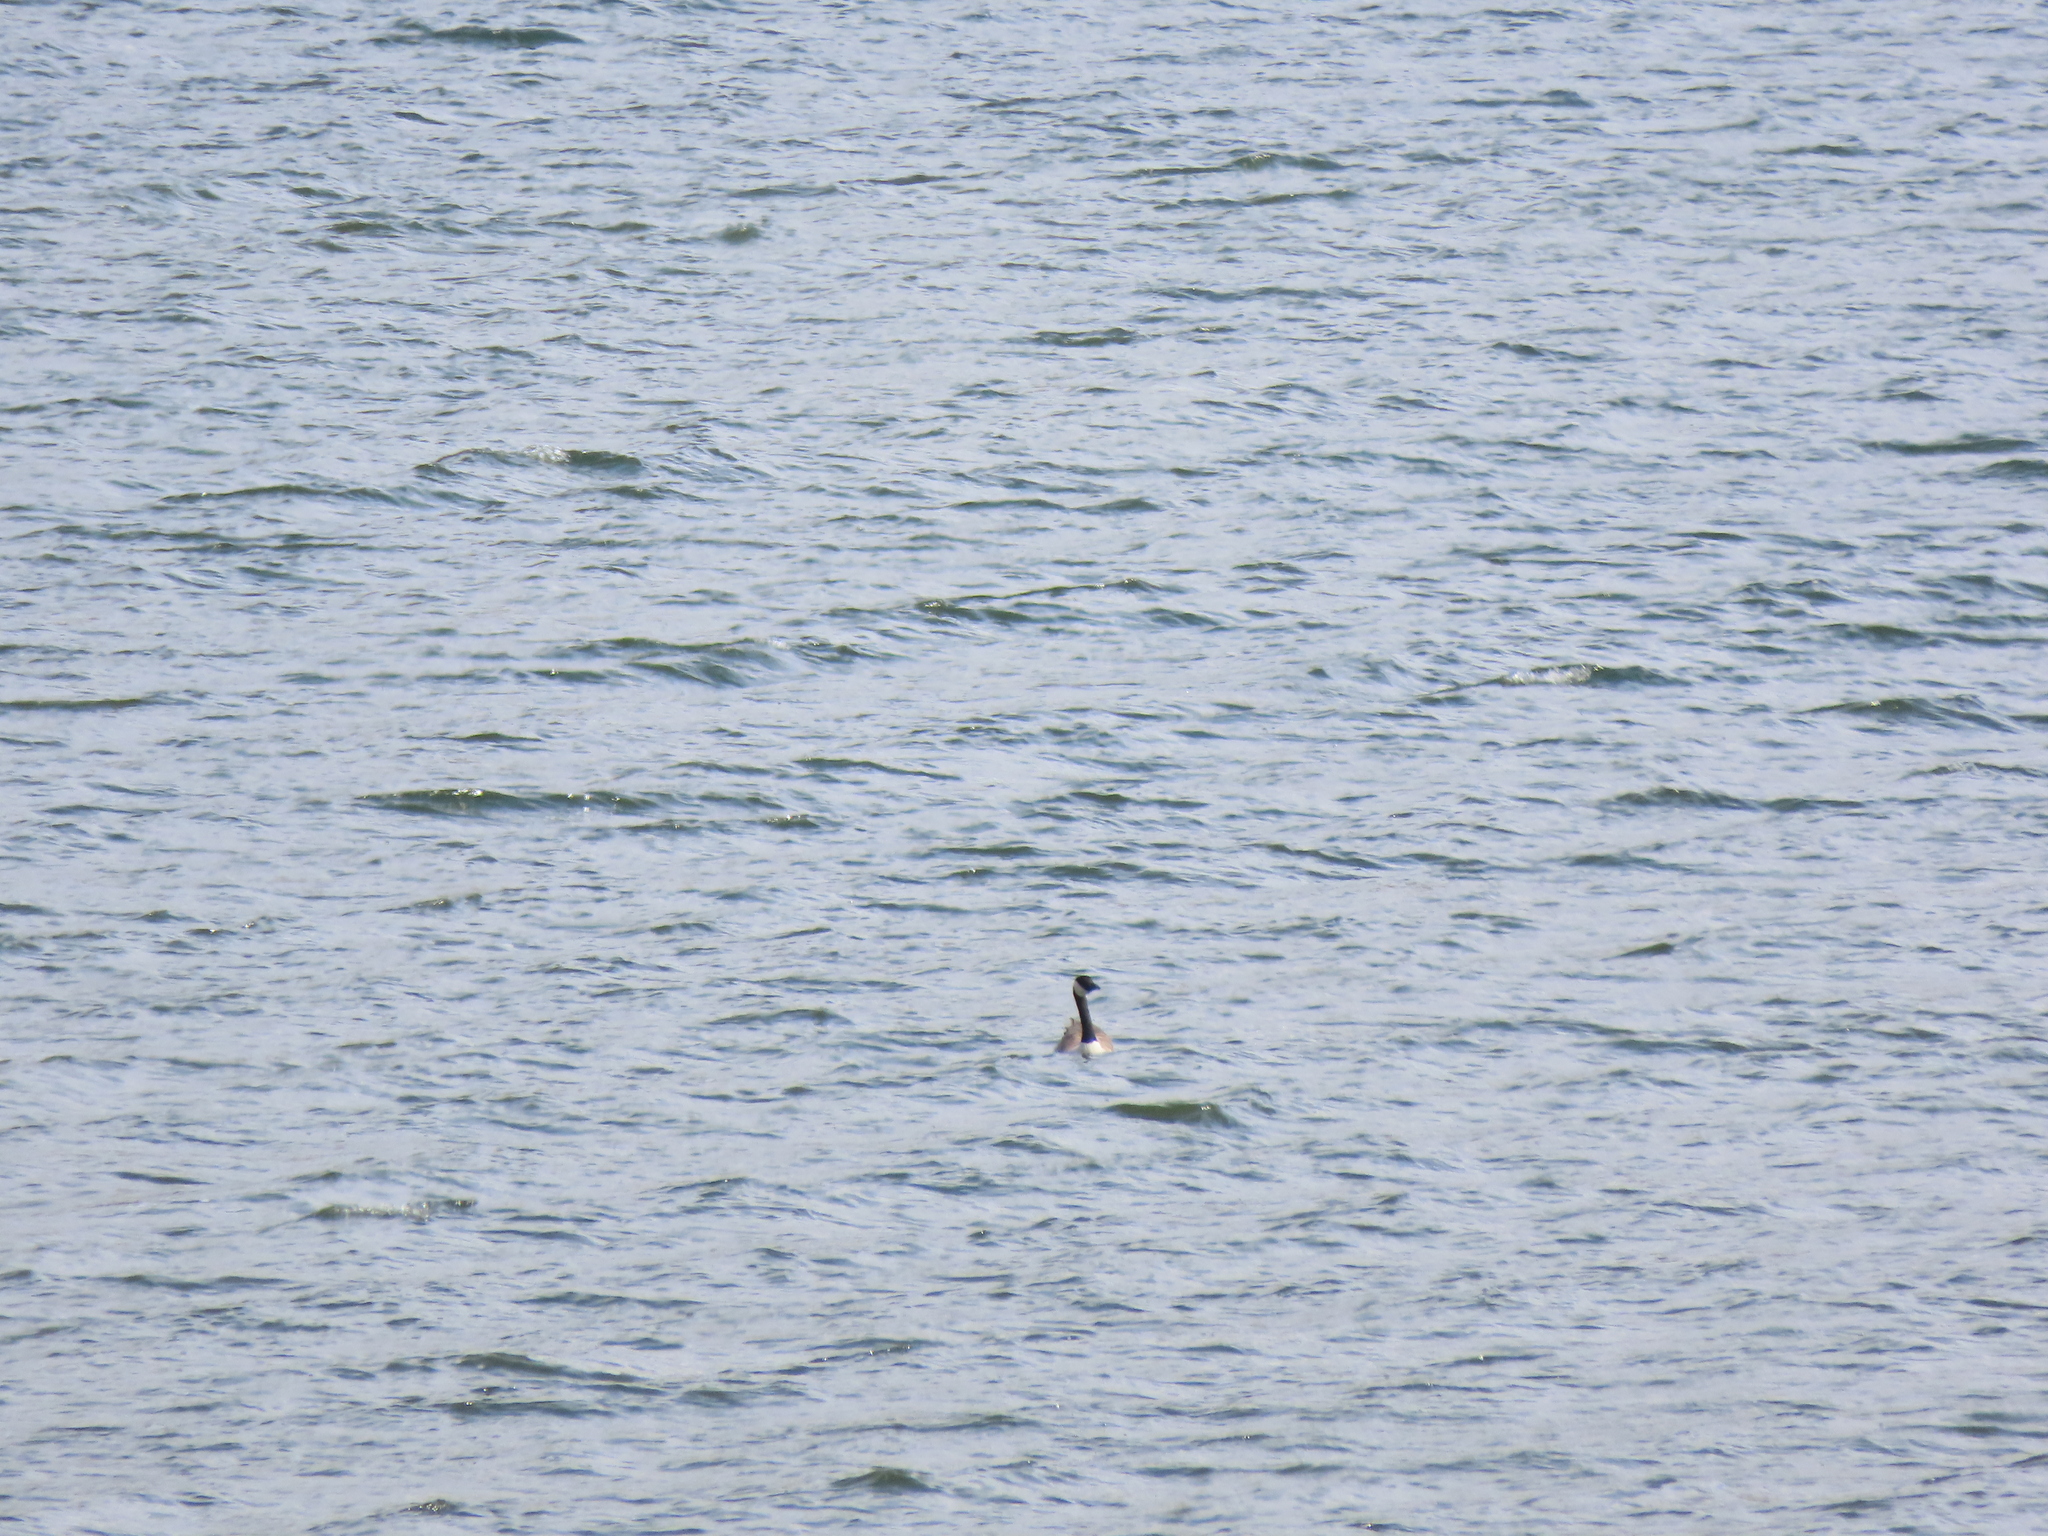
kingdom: Animalia
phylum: Chordata
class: Aves
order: Anseriformes
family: Anatidae
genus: Branta
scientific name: Branta canadensis
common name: Canada goose
